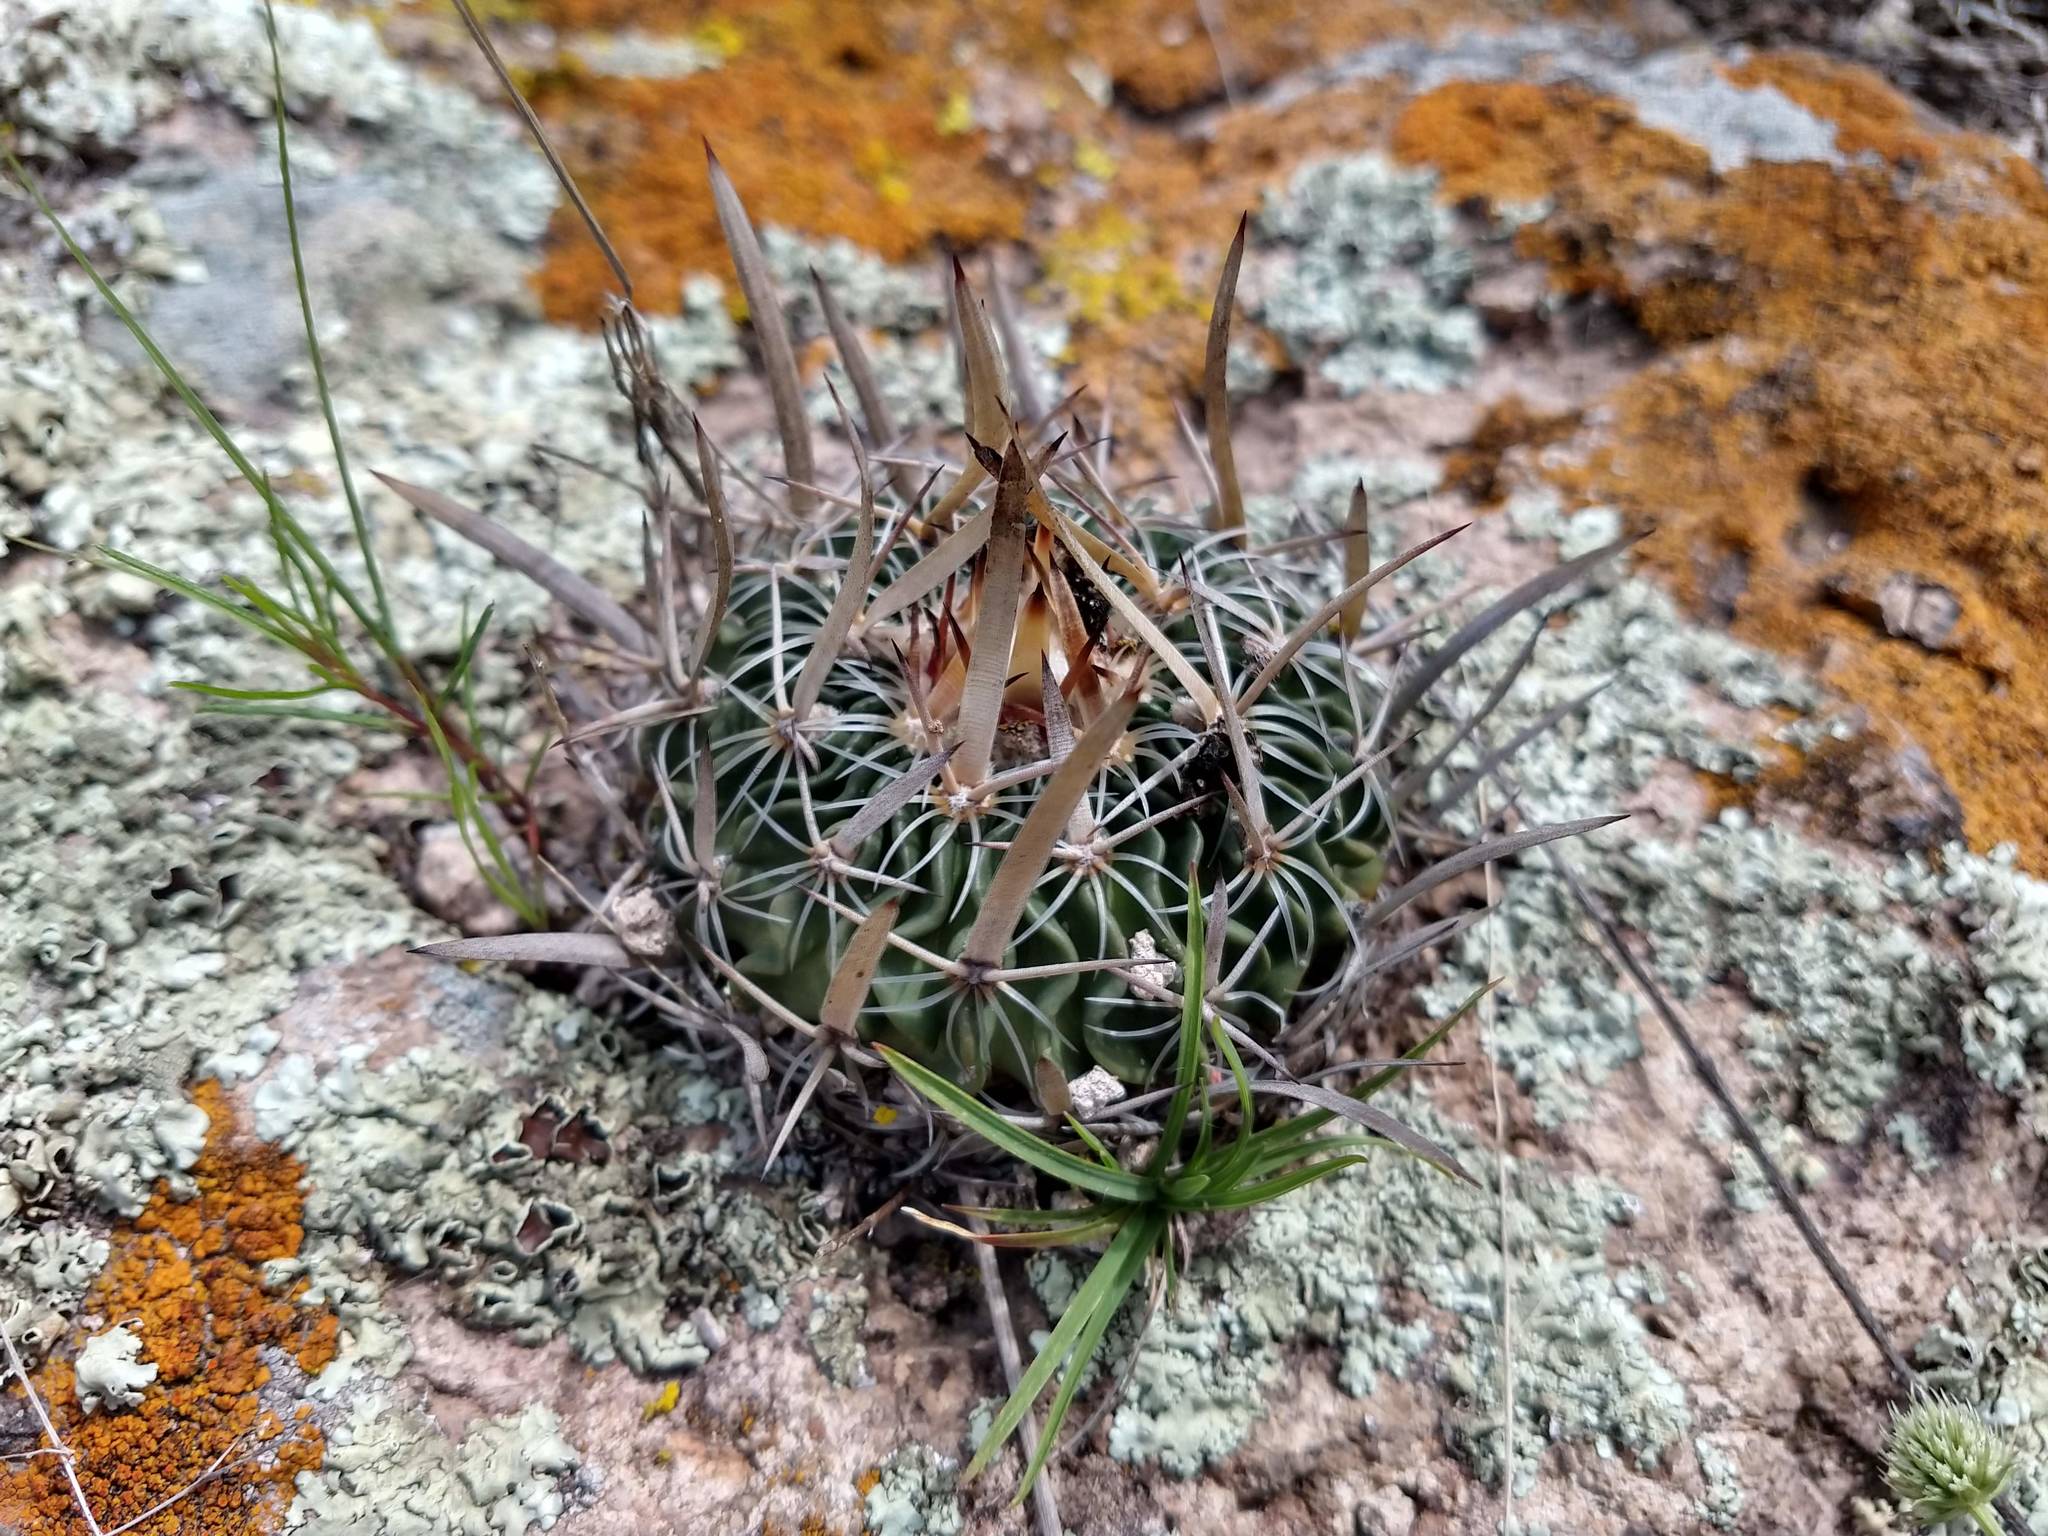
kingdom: Plantae
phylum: Tracheophyta
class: Magnoliopsida
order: Caryophyllales
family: Cactaceae
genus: Stenocactus
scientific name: Stenocactus crispatus
